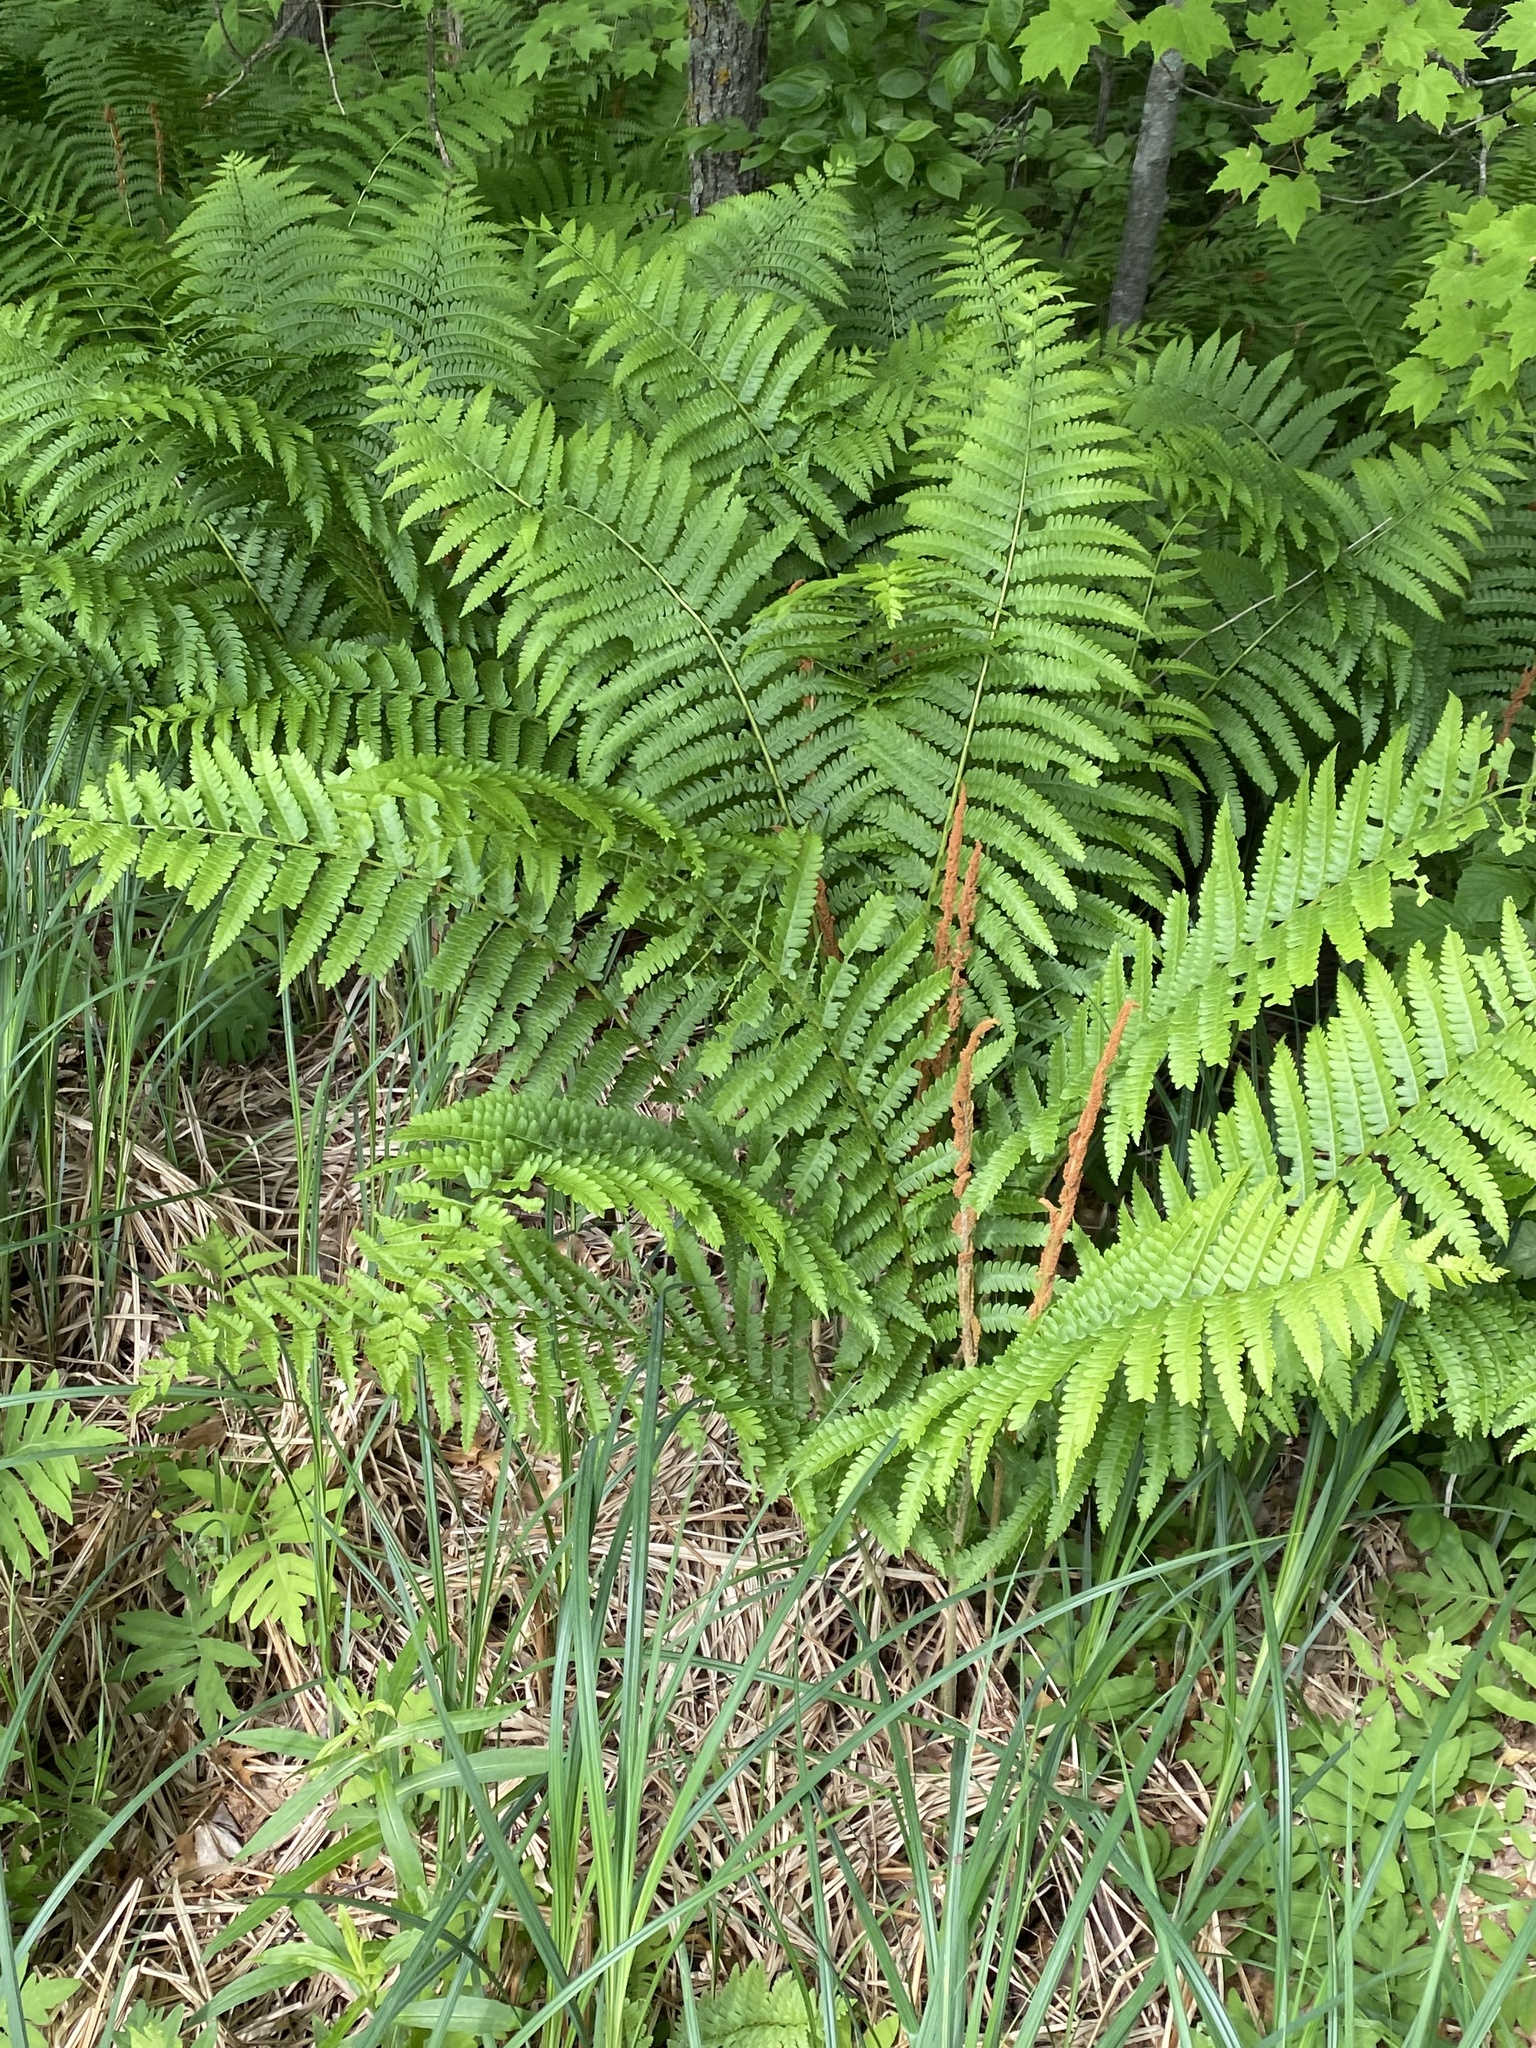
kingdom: Plantae
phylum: Tracheophyta
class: Polypodiopsida
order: Osmundales
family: Osmundaceae
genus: Osmundastrum
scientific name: Osmundastrum cinnamomeum
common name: Cinnamon fern
